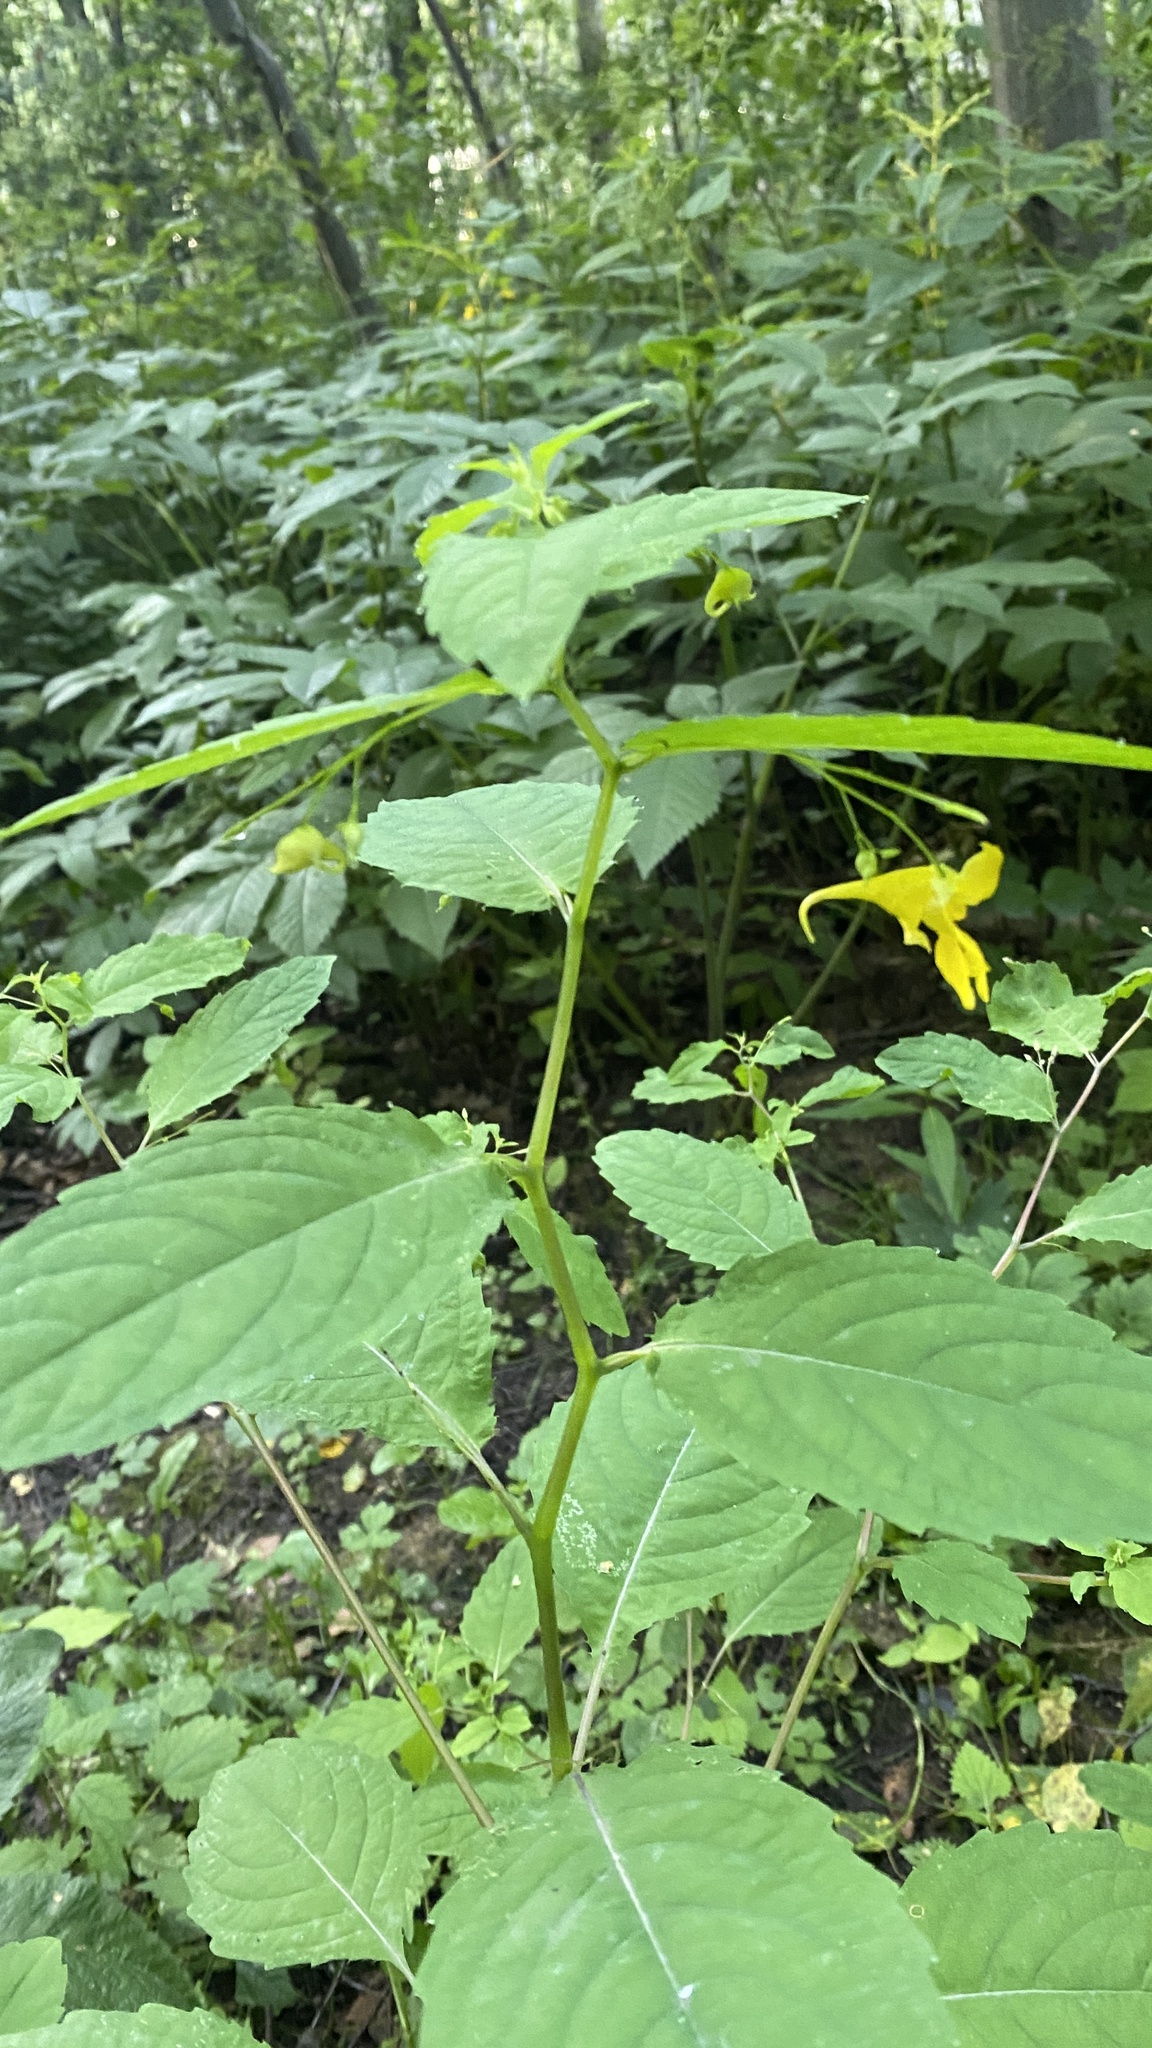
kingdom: Plantae
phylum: Tracheophyta
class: Magnoliopsida
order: Ericales
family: Balsaminaceae
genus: Impatiens
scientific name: Impatiens noli-tangere
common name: Touch-me-not balsam
